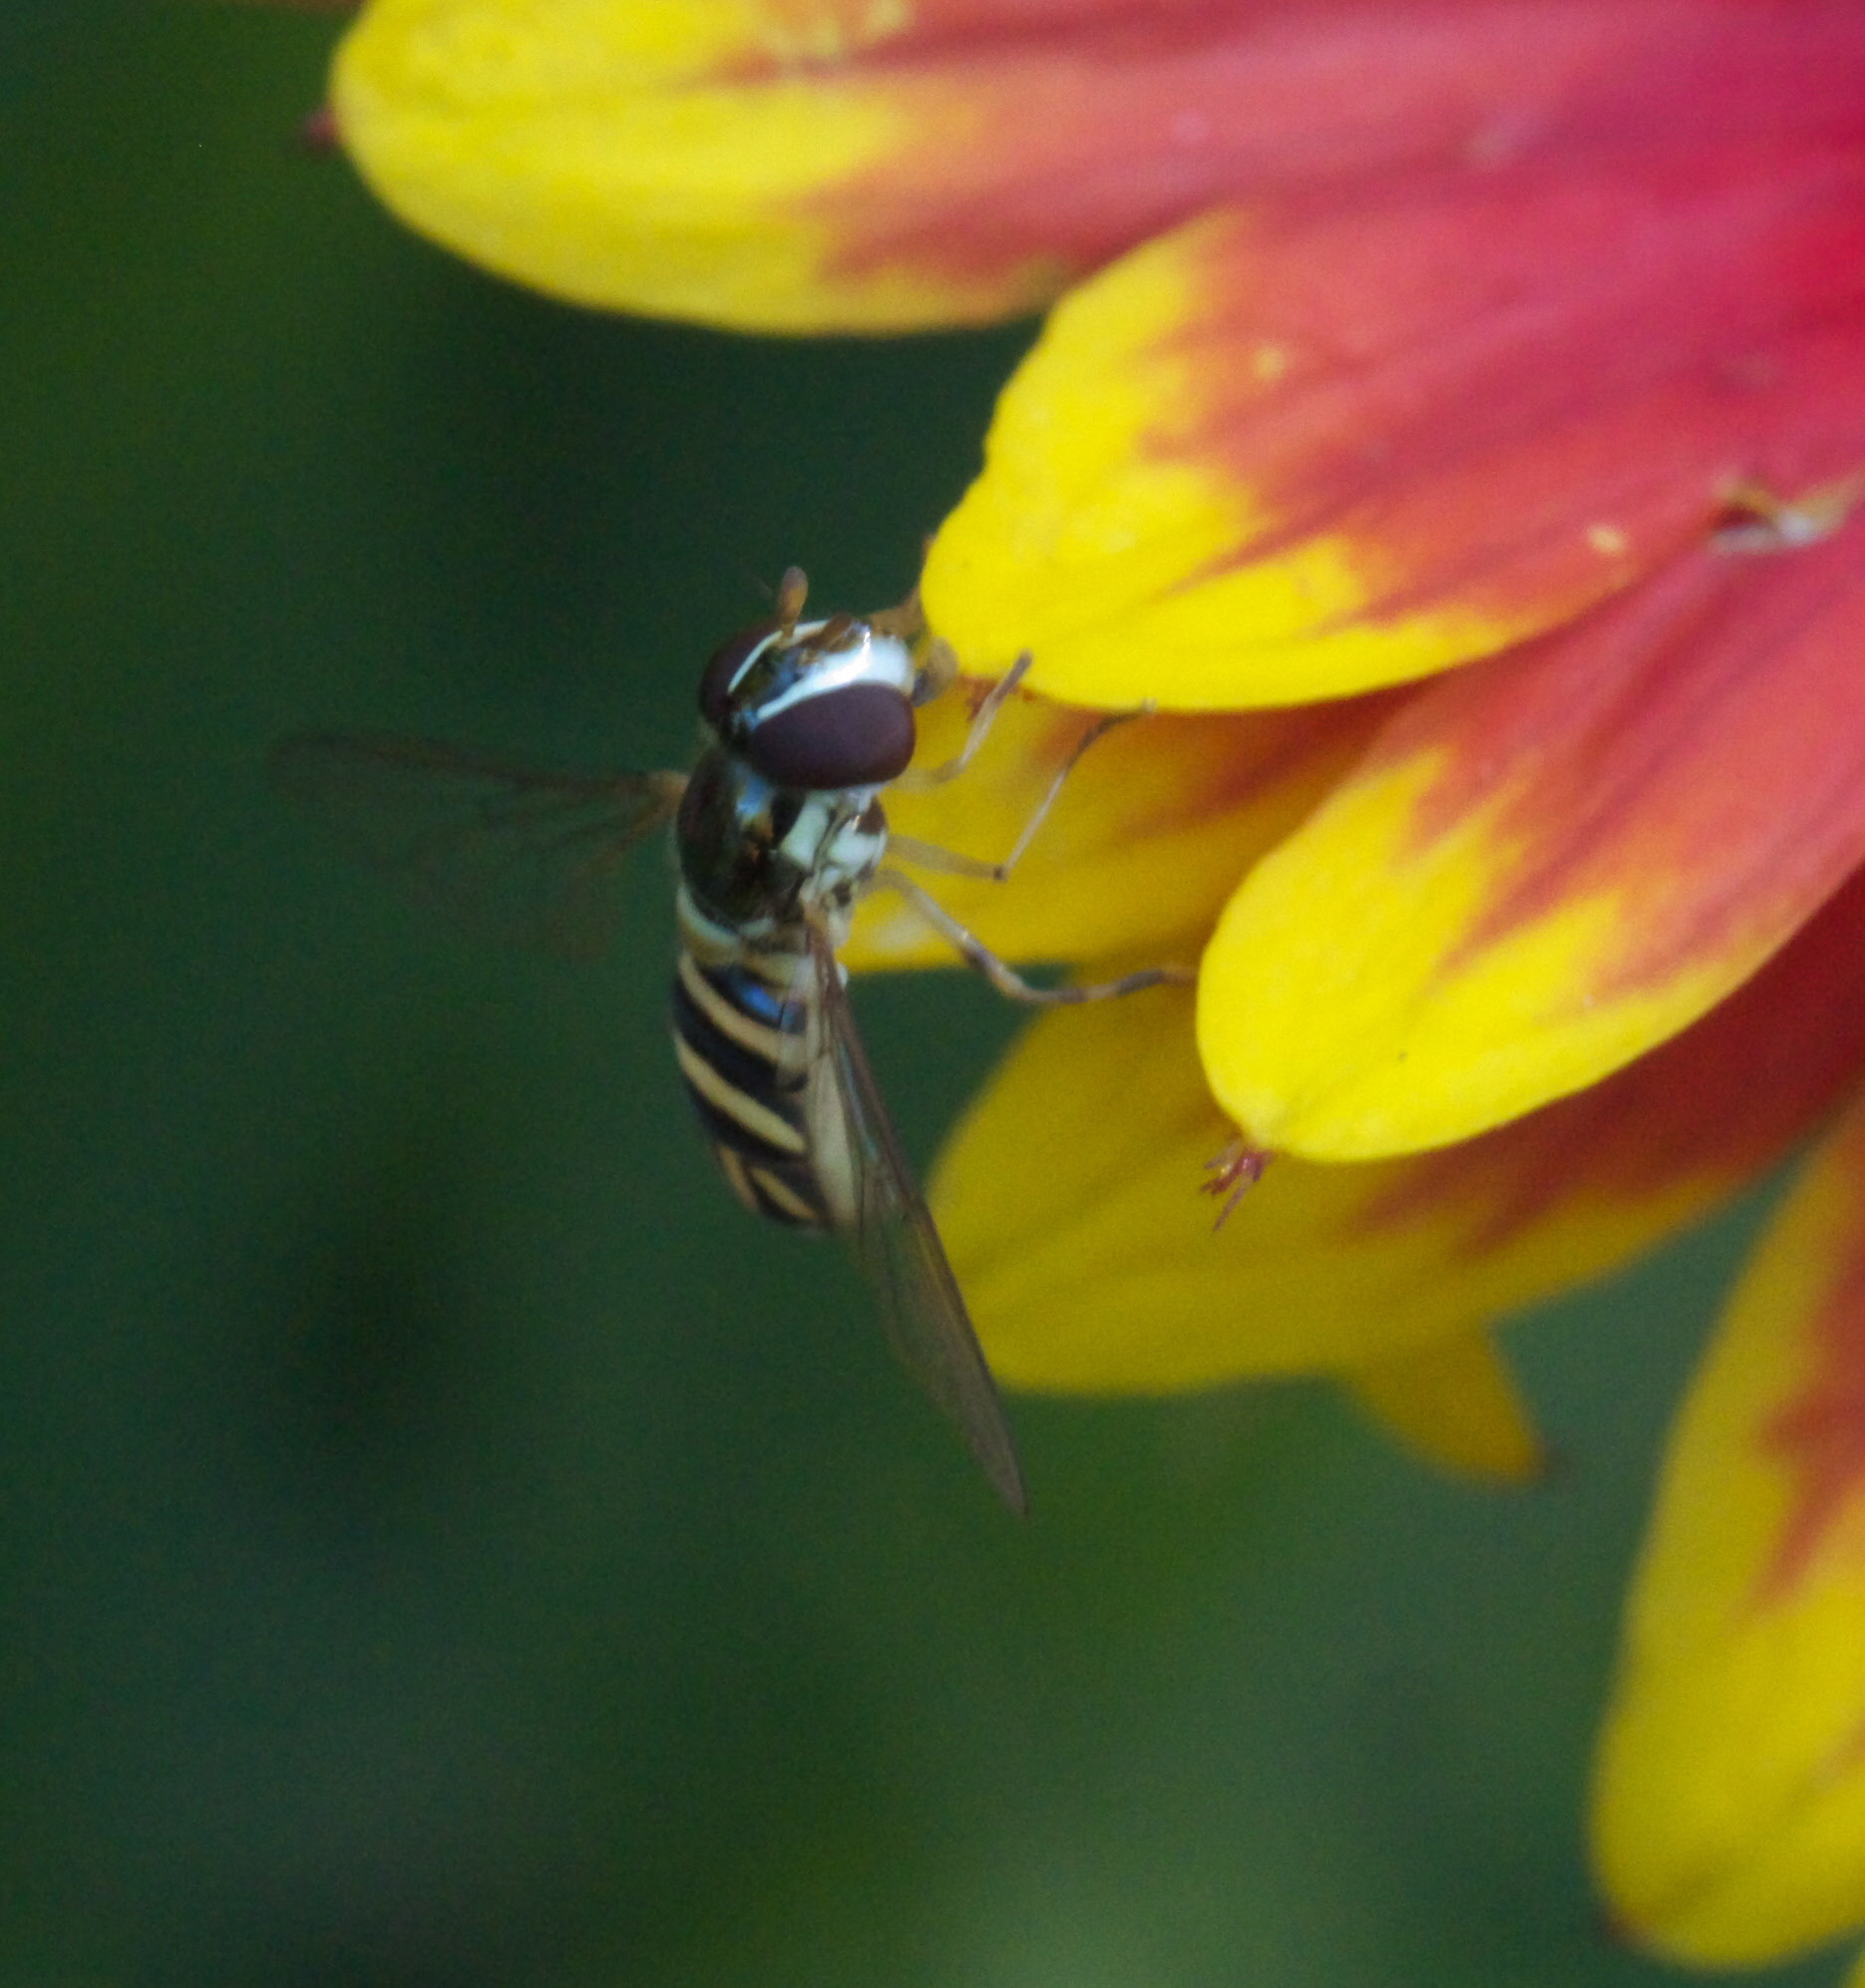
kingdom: Animalia
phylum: Arthropoda
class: Insecta
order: Diptera
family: Syrphidae
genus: Allograpta
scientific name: Allograpta obliqua
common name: Common oblique syrphid
